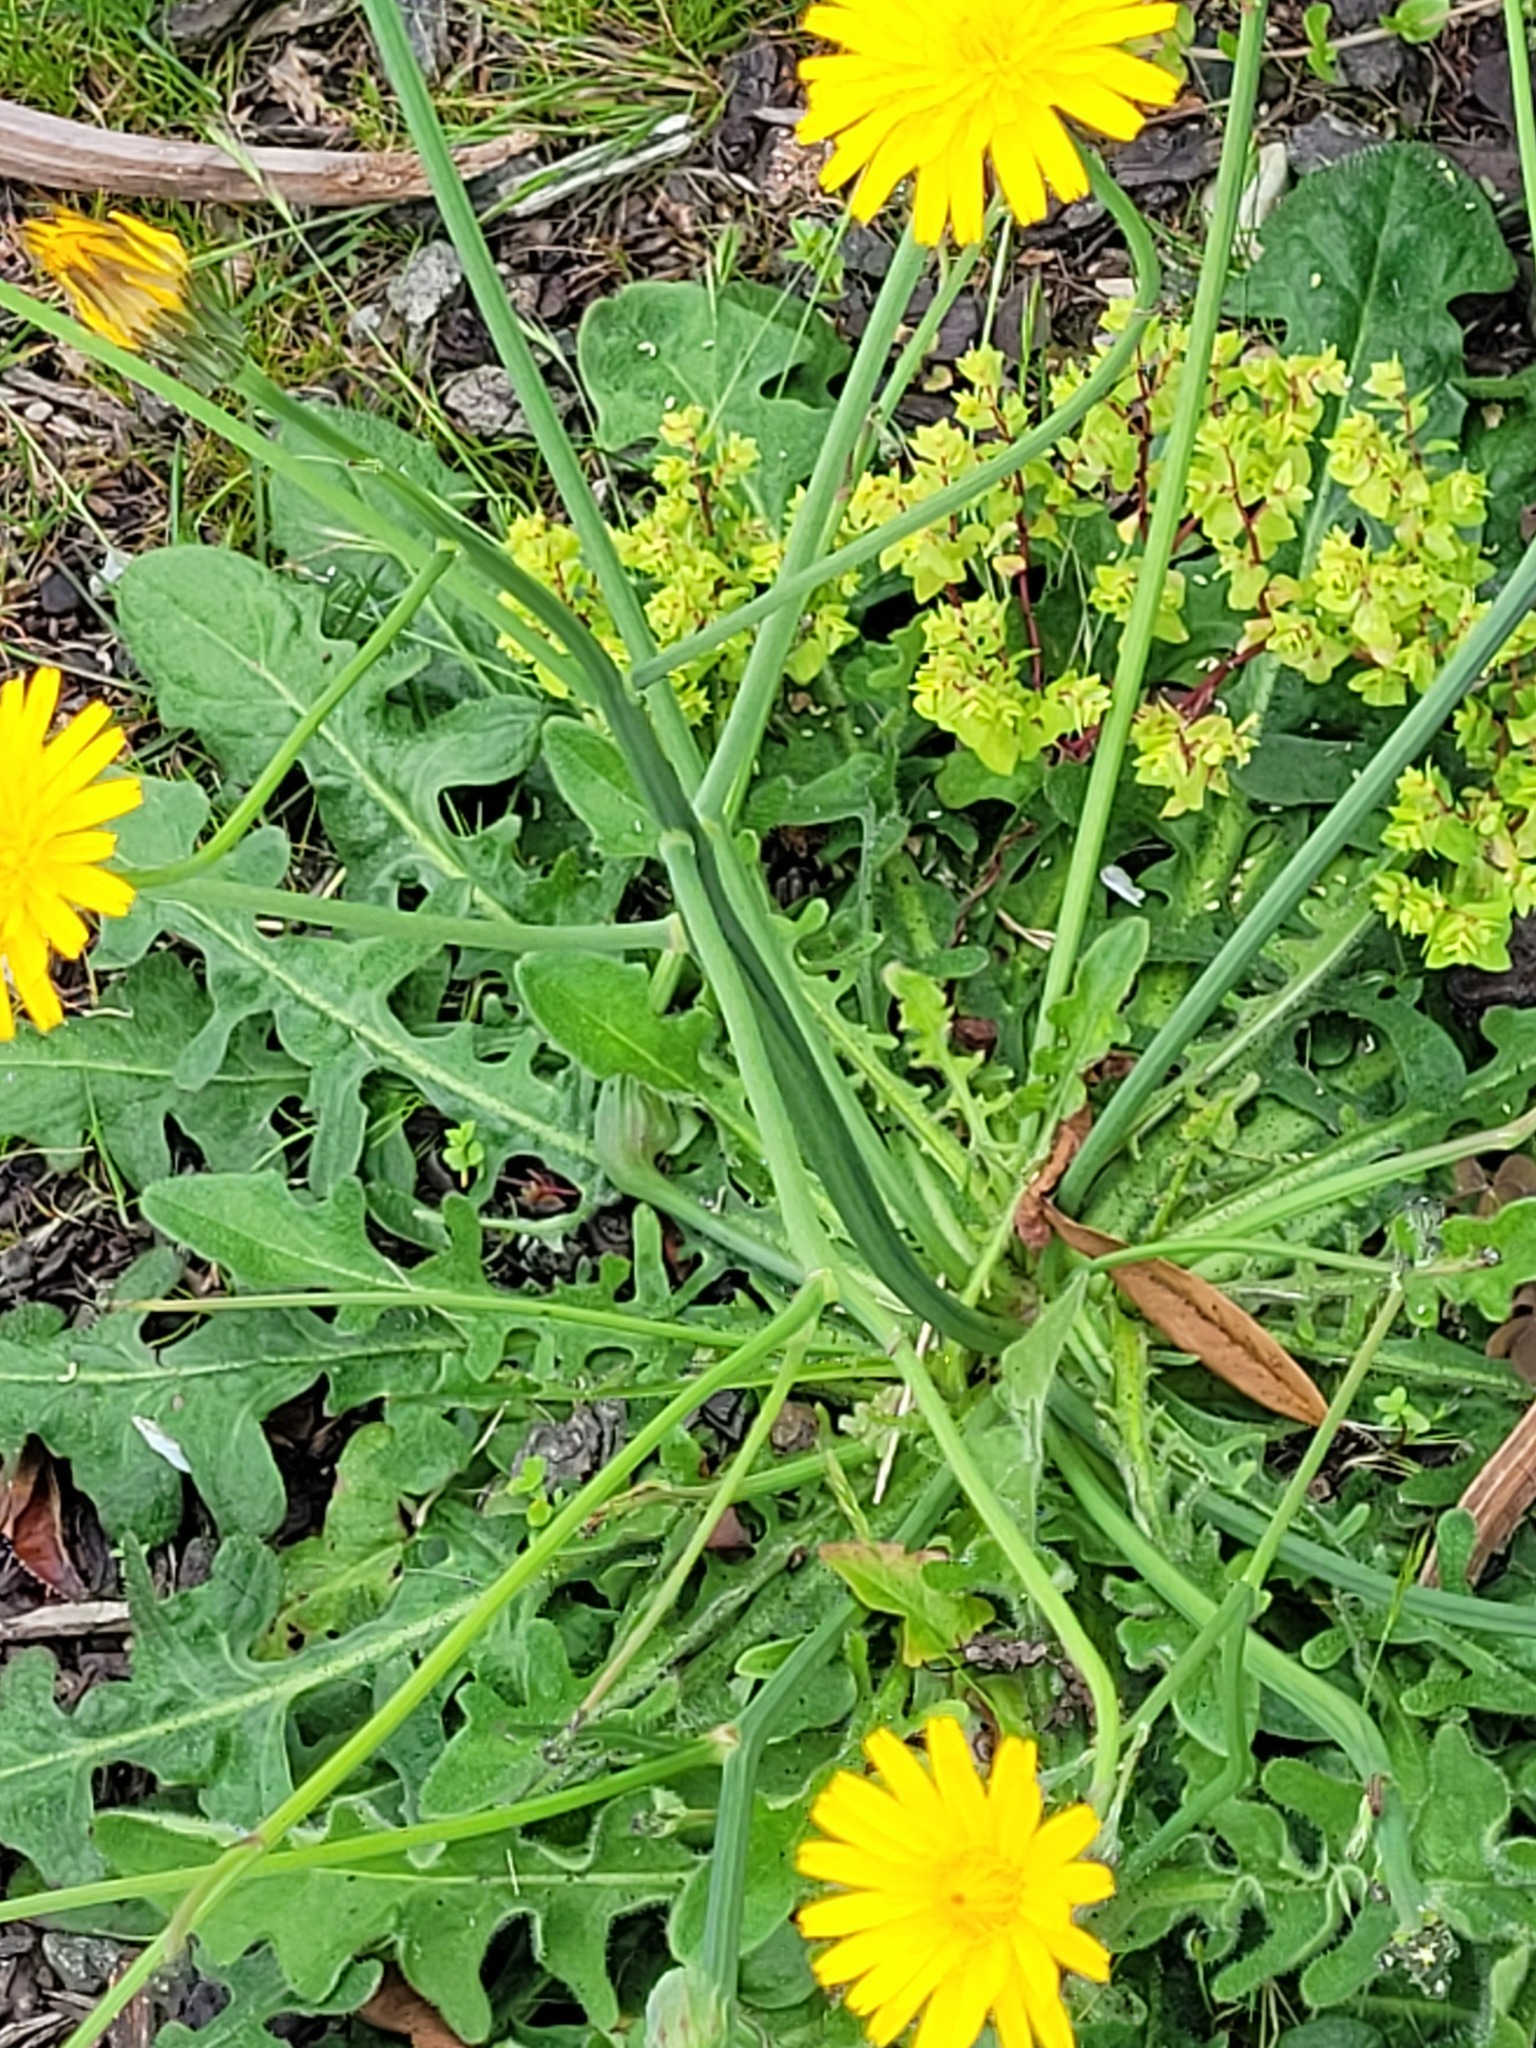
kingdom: Plantae
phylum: Tracheophyta
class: Magnoliopsida
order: Asterales
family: Asteraceae
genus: Hypochaeris
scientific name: Hypochaeris radicata
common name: Flatweed
